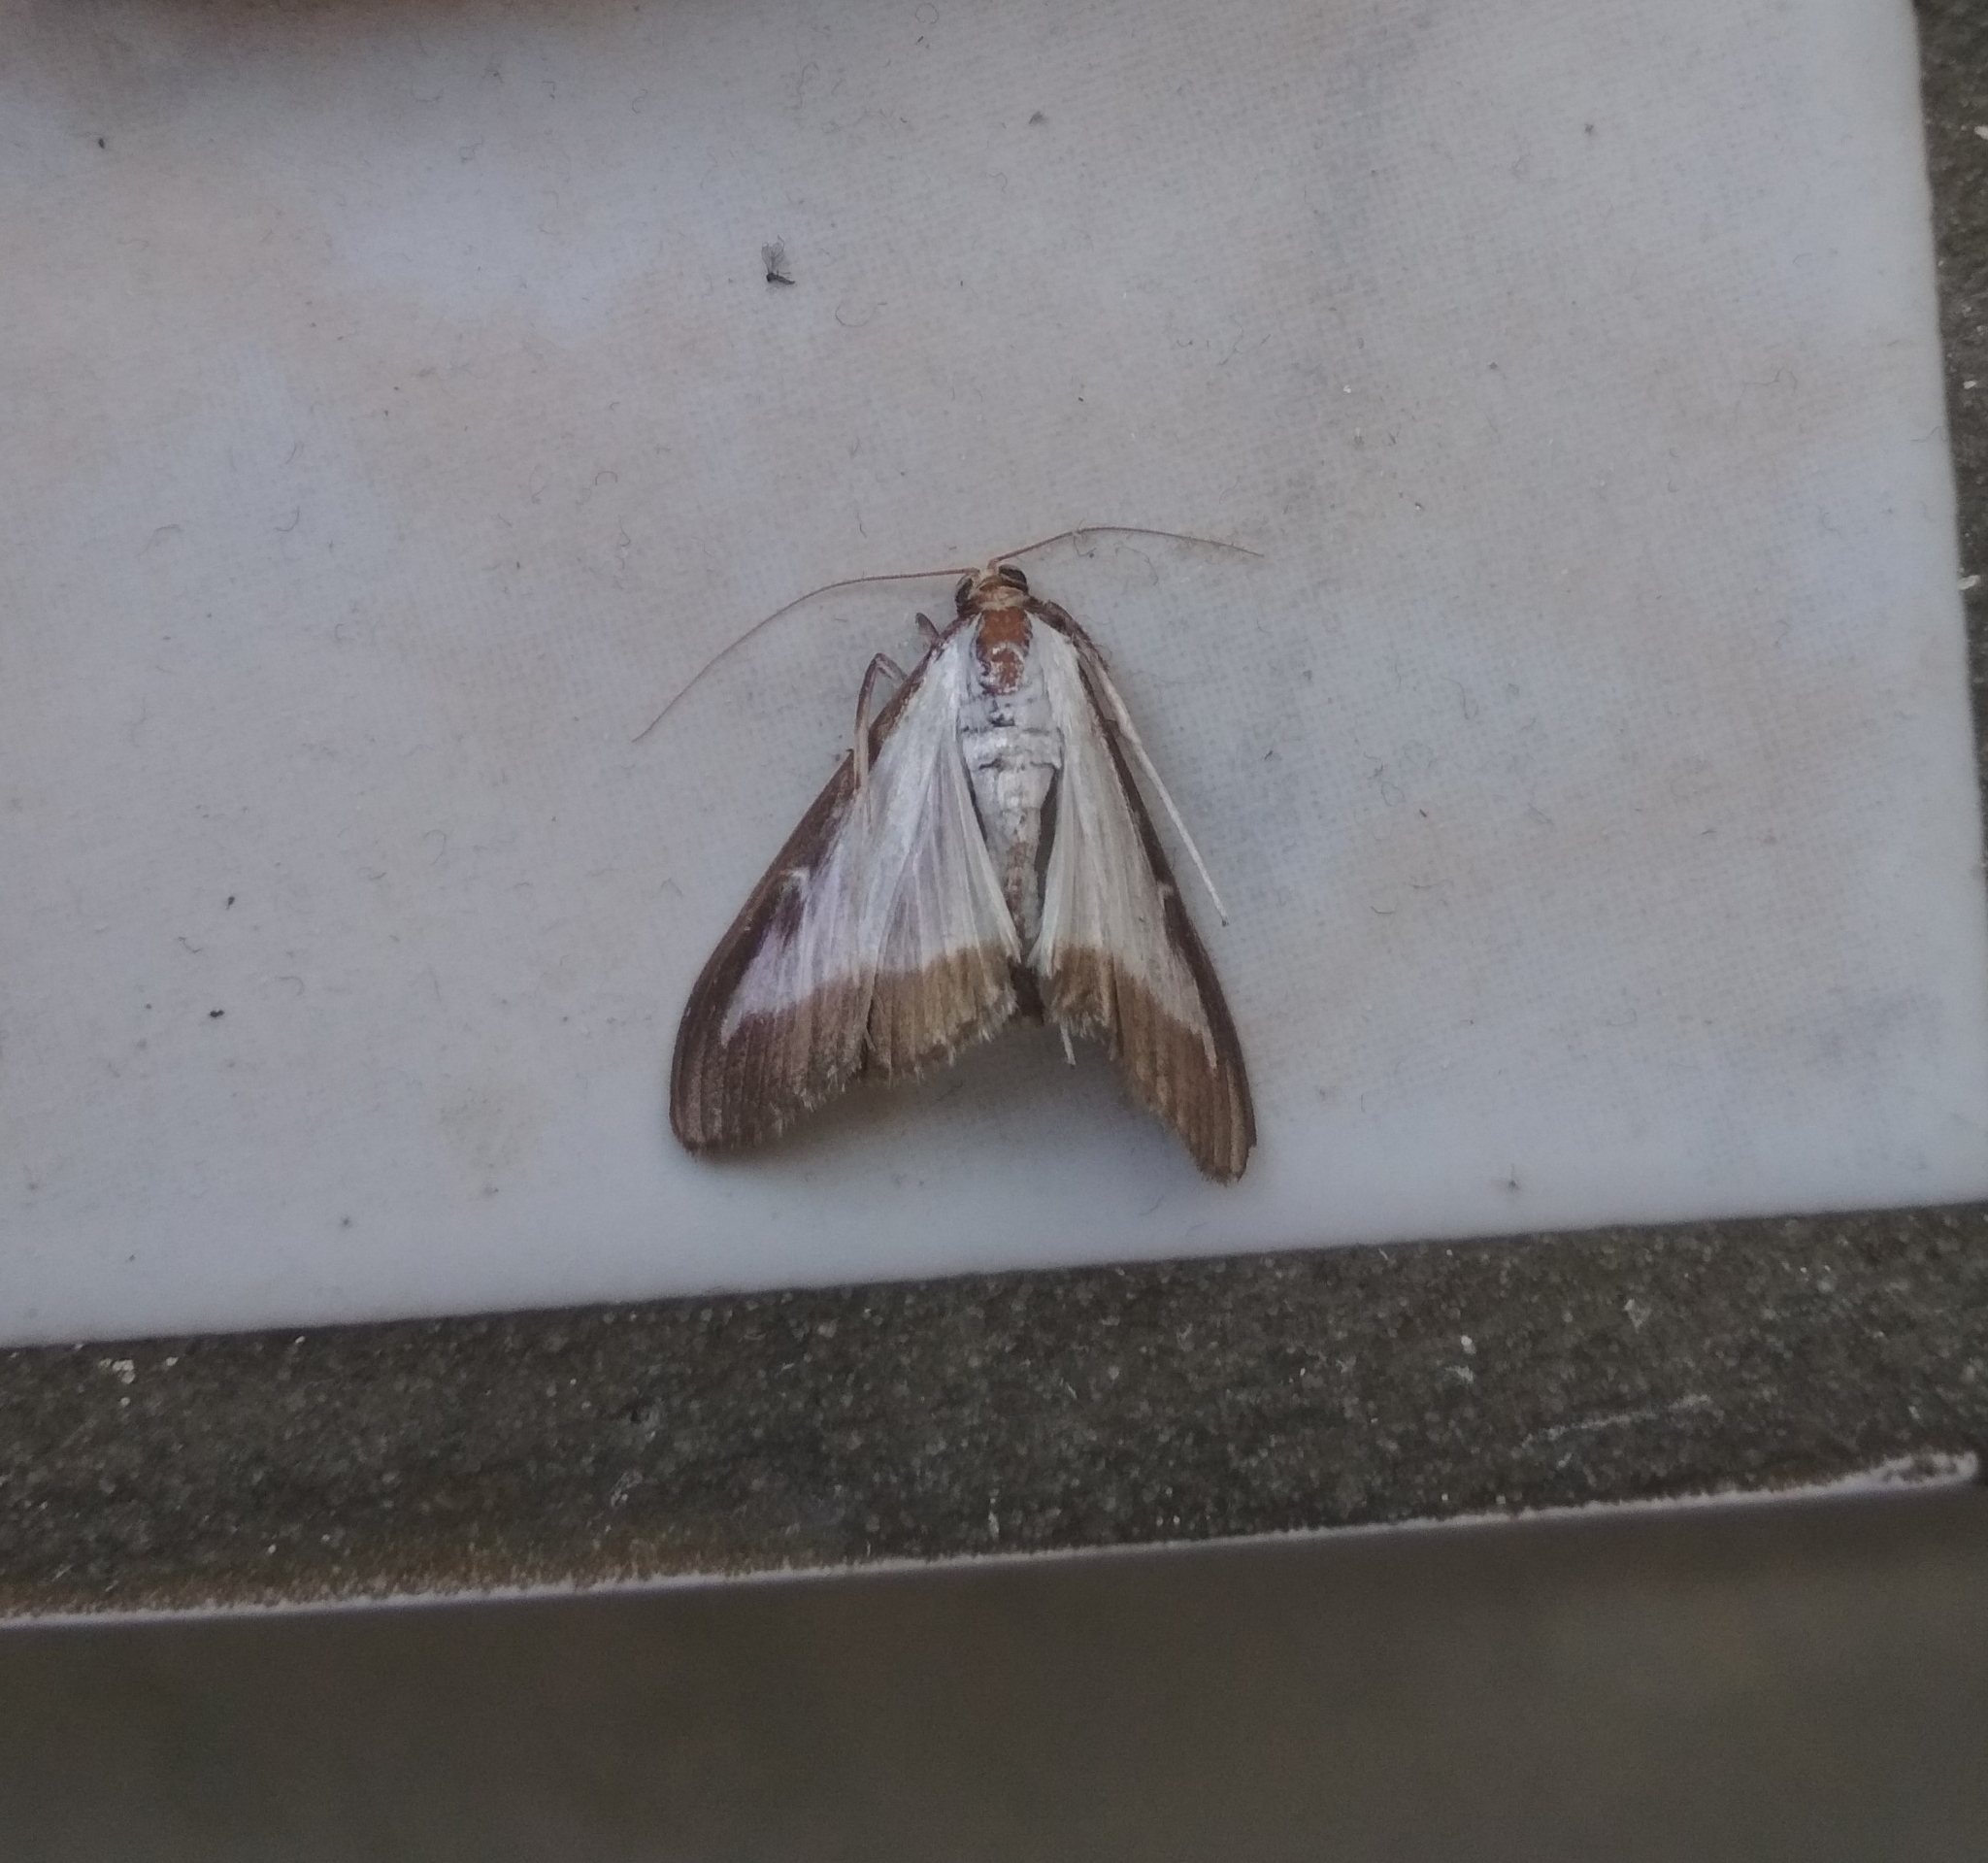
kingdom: Animalia
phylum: Arthropoda
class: Insecta
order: Lepidoptera
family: Crambidae
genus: Cydalima
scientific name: Cydalima perspectalis
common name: Box tree moth
